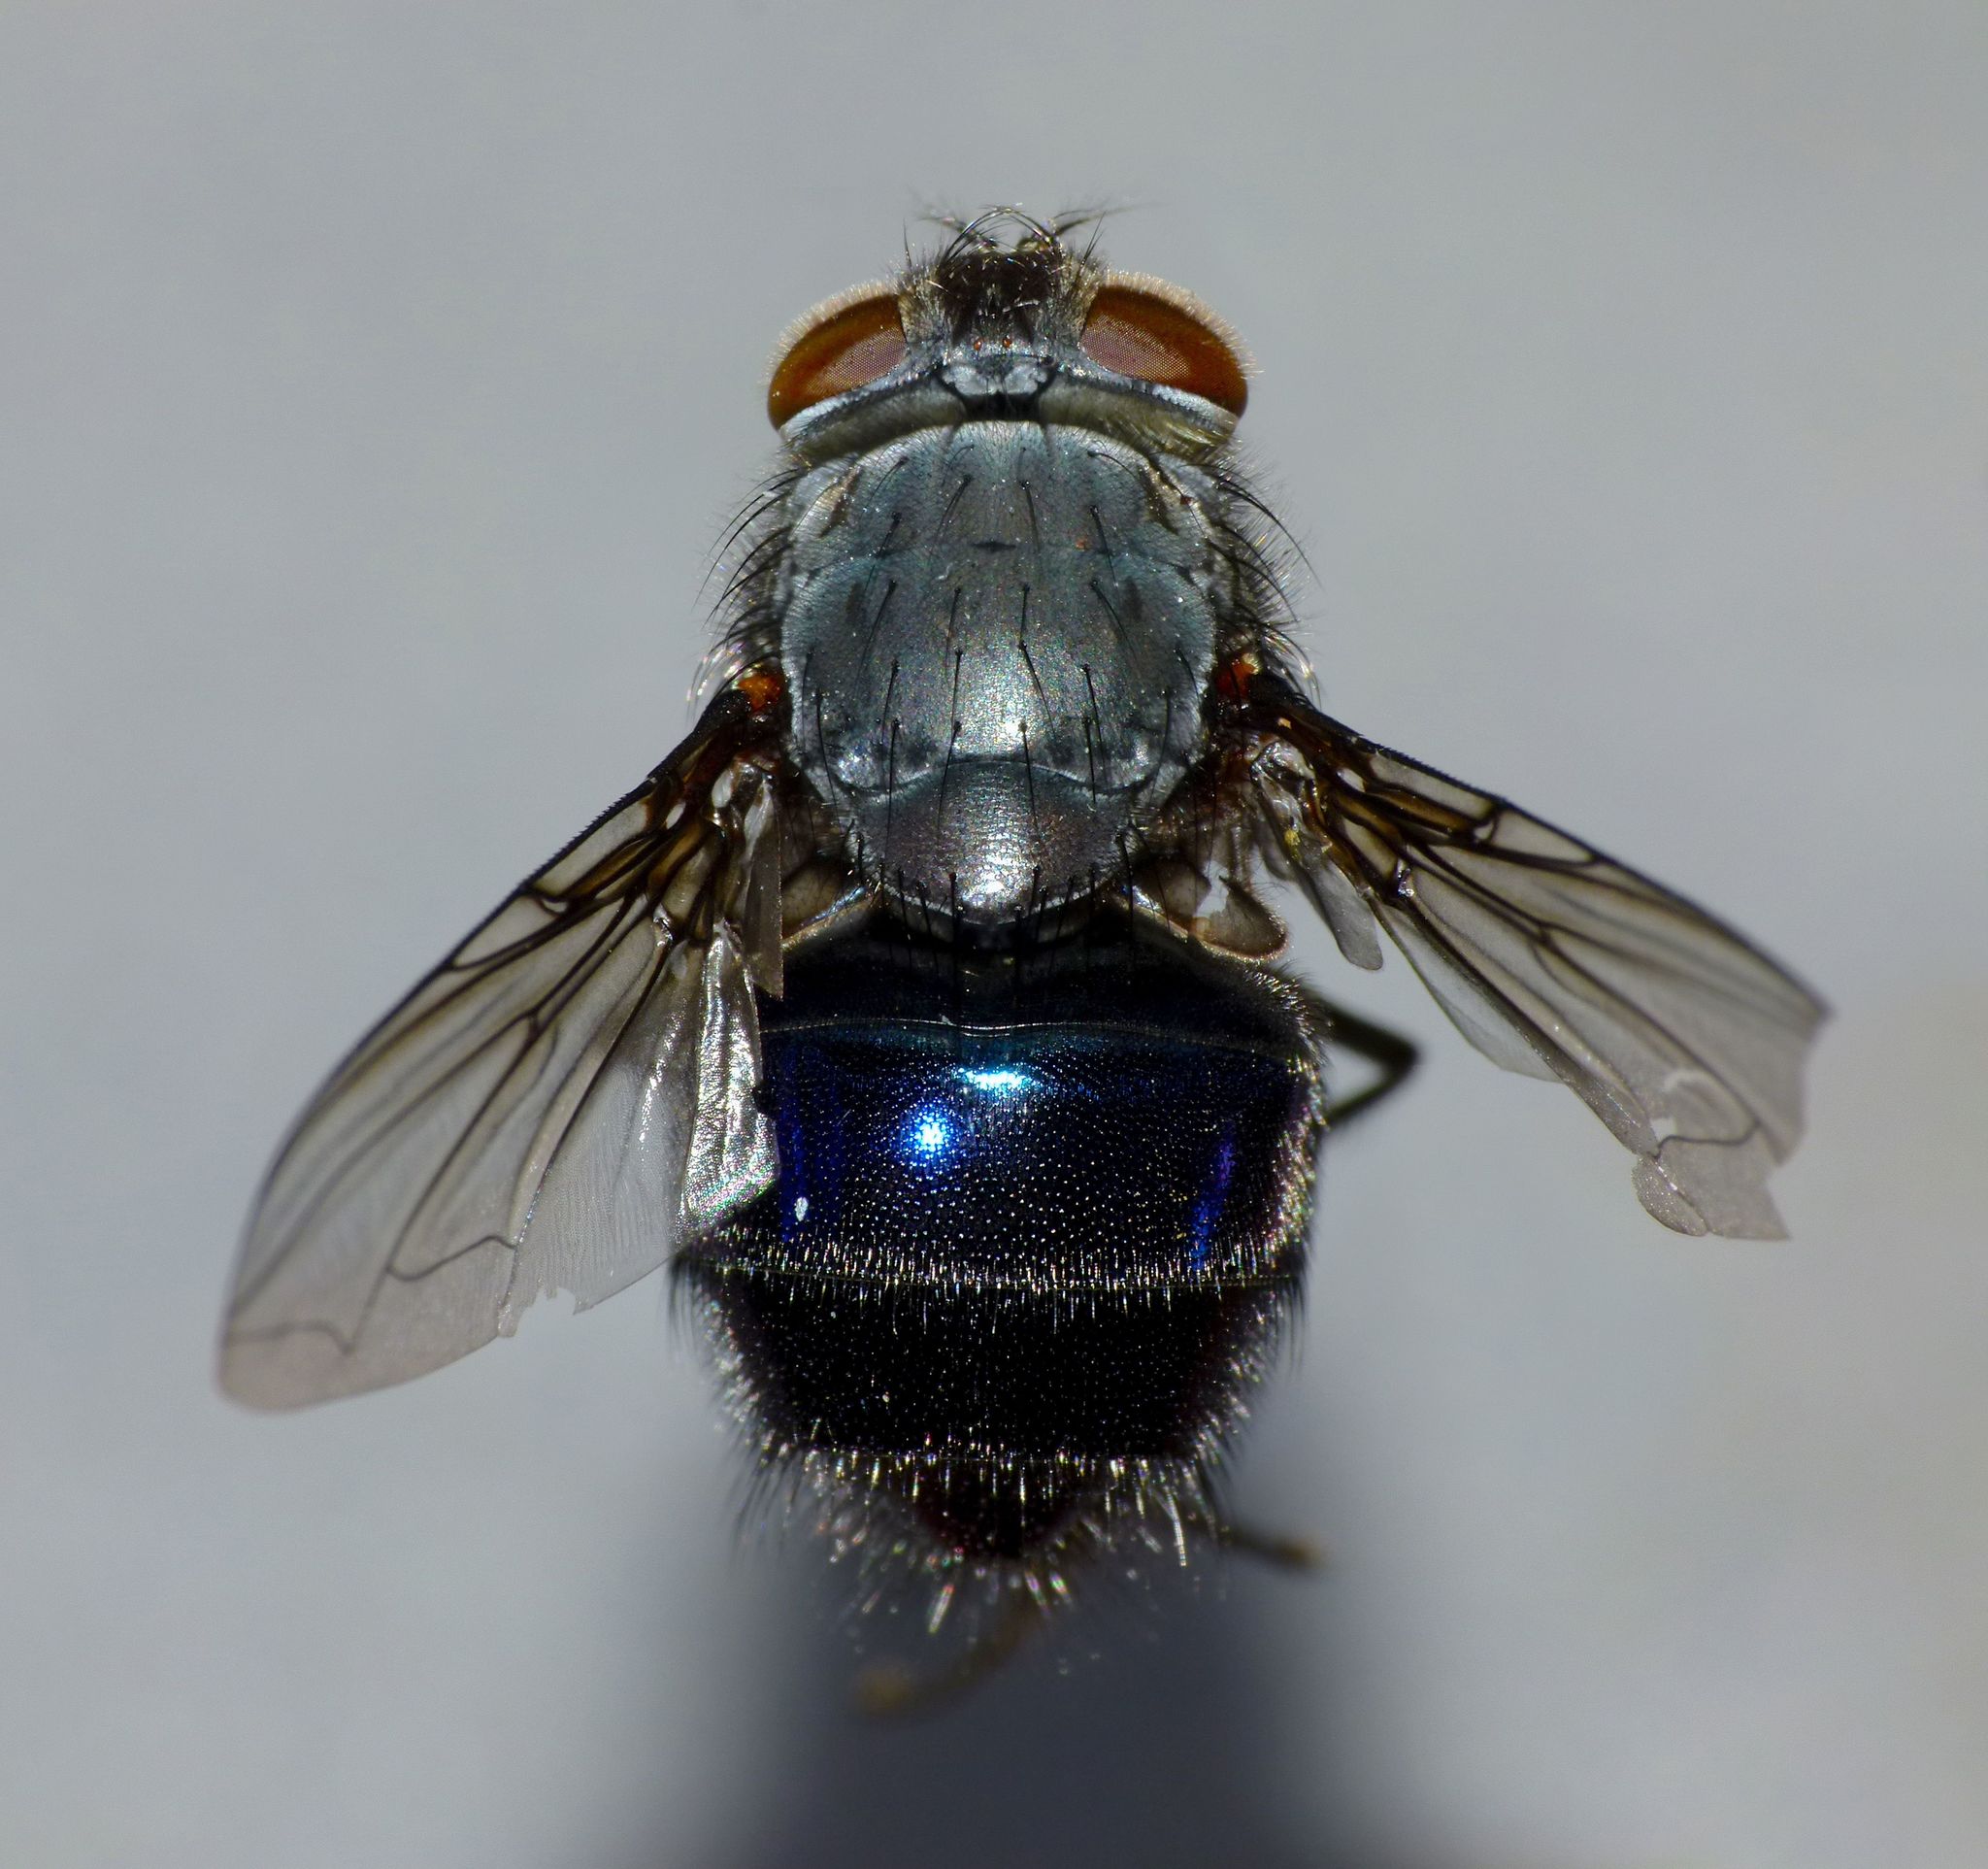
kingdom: Animalia
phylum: Arthropoda
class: Insecta
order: Diptera
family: Calliphoridae
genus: Calliphora
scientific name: Calliphora quadrimaculata
